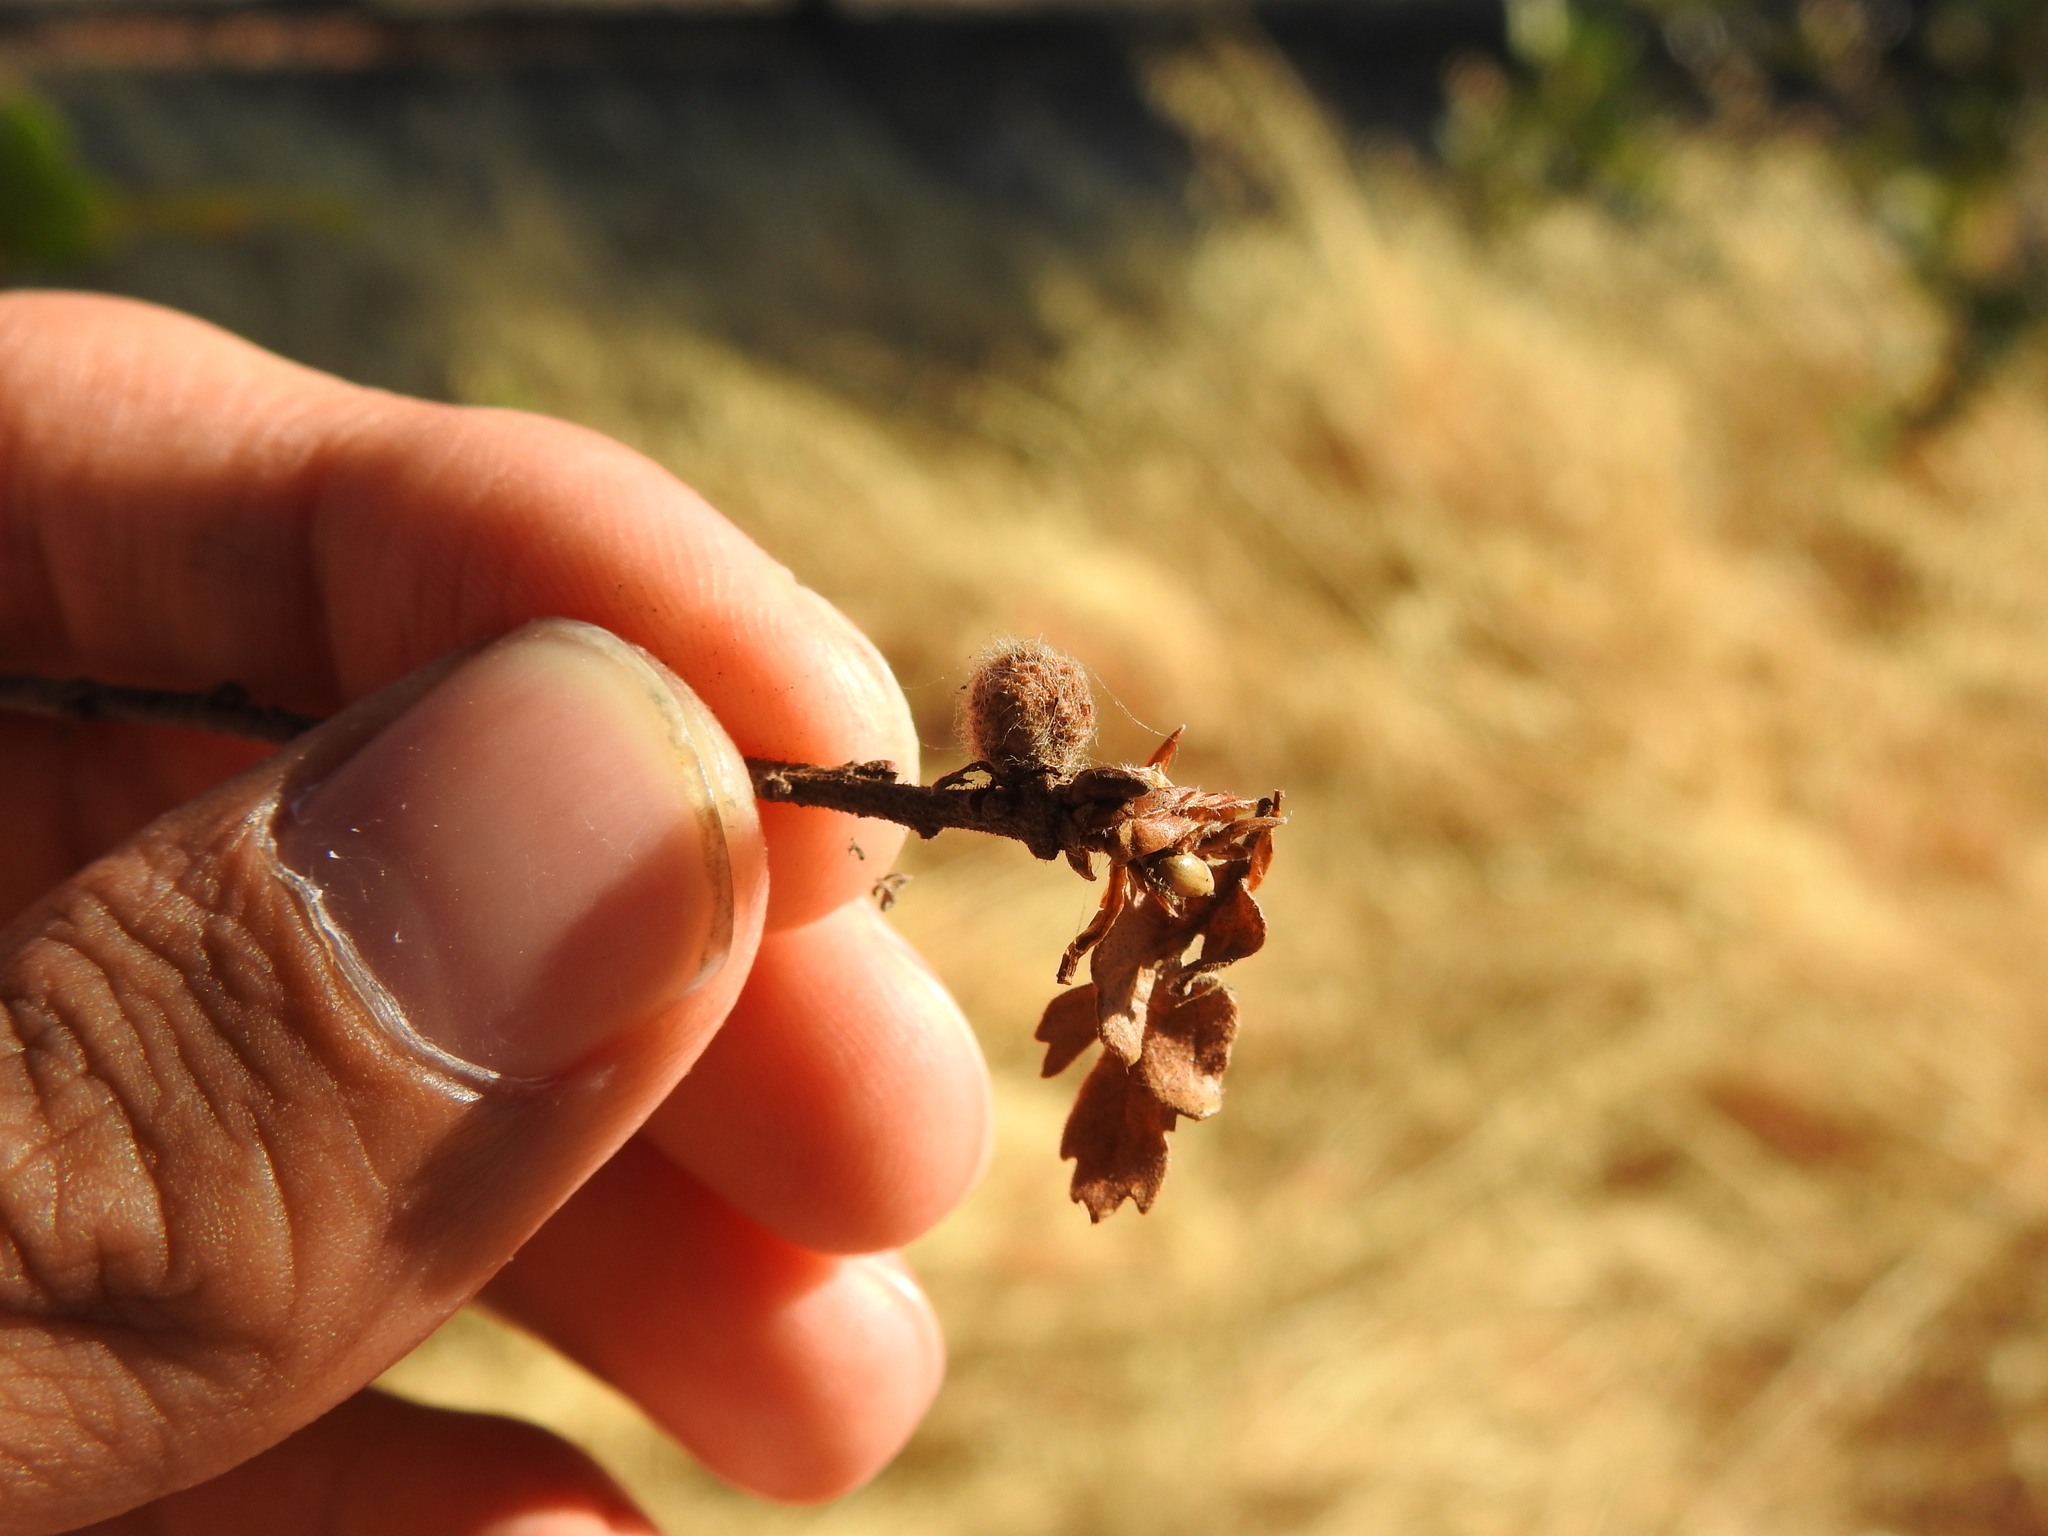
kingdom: Animalia
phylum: Arthropoda
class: Insecta
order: Hymenoptera
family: Cynipidae
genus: Burnettweldia
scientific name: Burnettweldia
